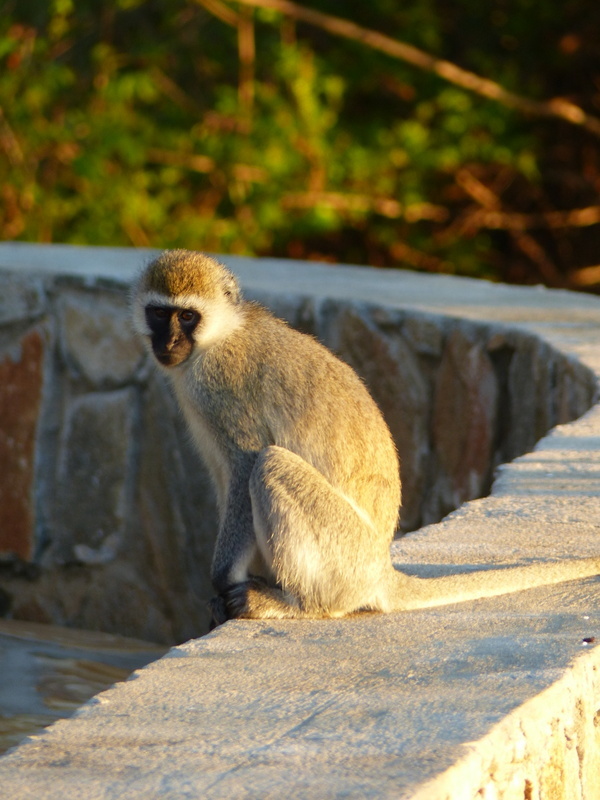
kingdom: Animalia
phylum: Chordata
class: Mammalia
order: Primates
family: Cercopithecidae
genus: Chlorocebus
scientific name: Chlorocebus pygerythrus
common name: Vervet monkey
